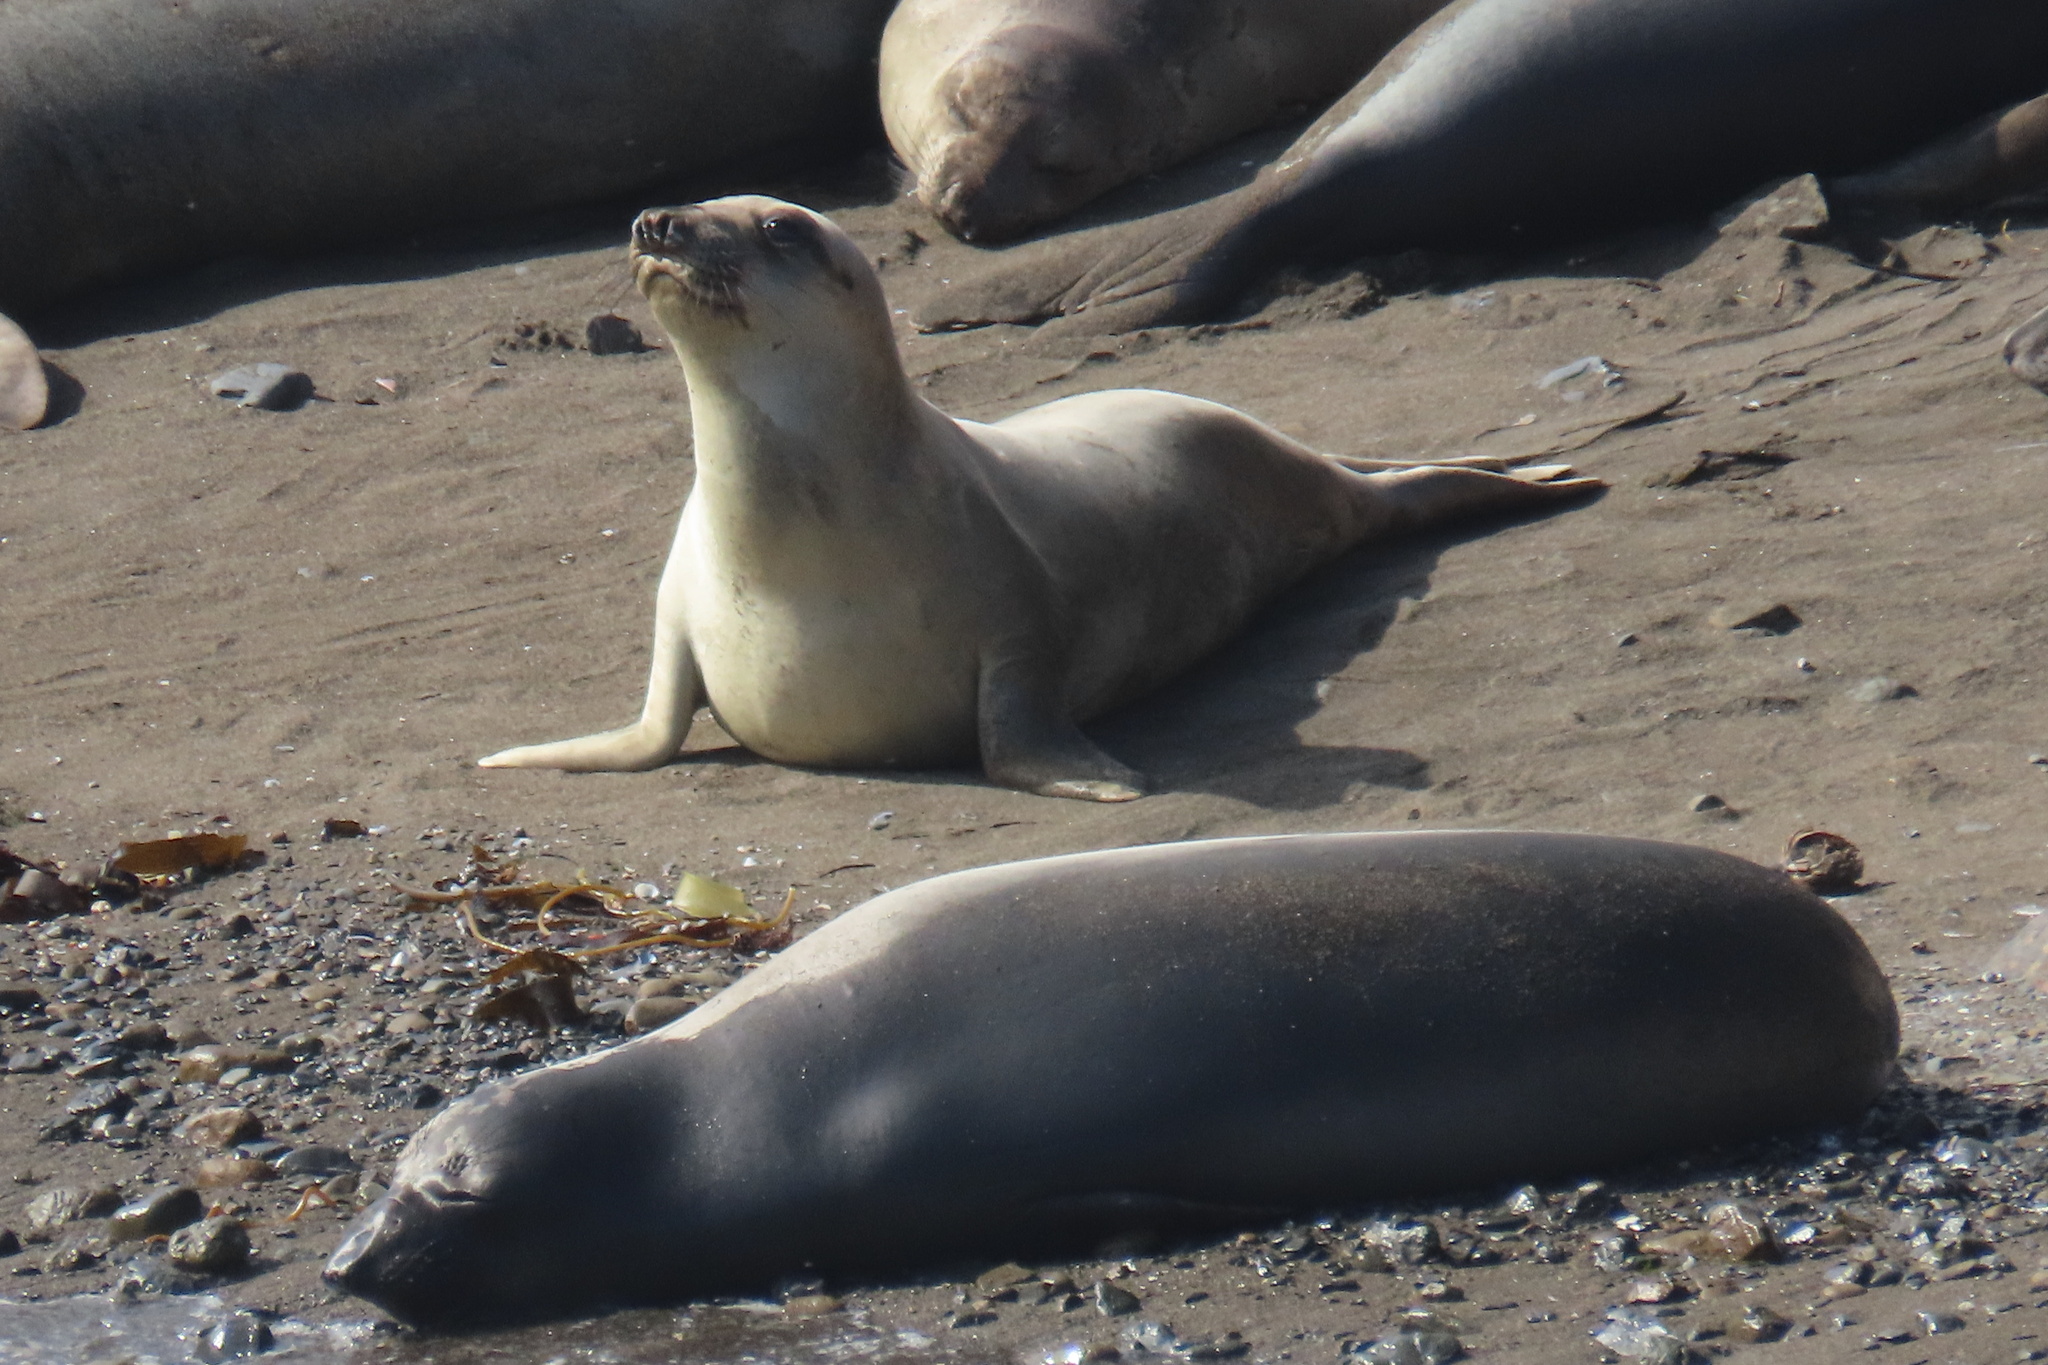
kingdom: Animalia
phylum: Chordata
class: Mammalia
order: Carnivora
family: Phocidae
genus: Mirounga
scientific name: Mirounga angustirostris
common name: Northern elephant seal
